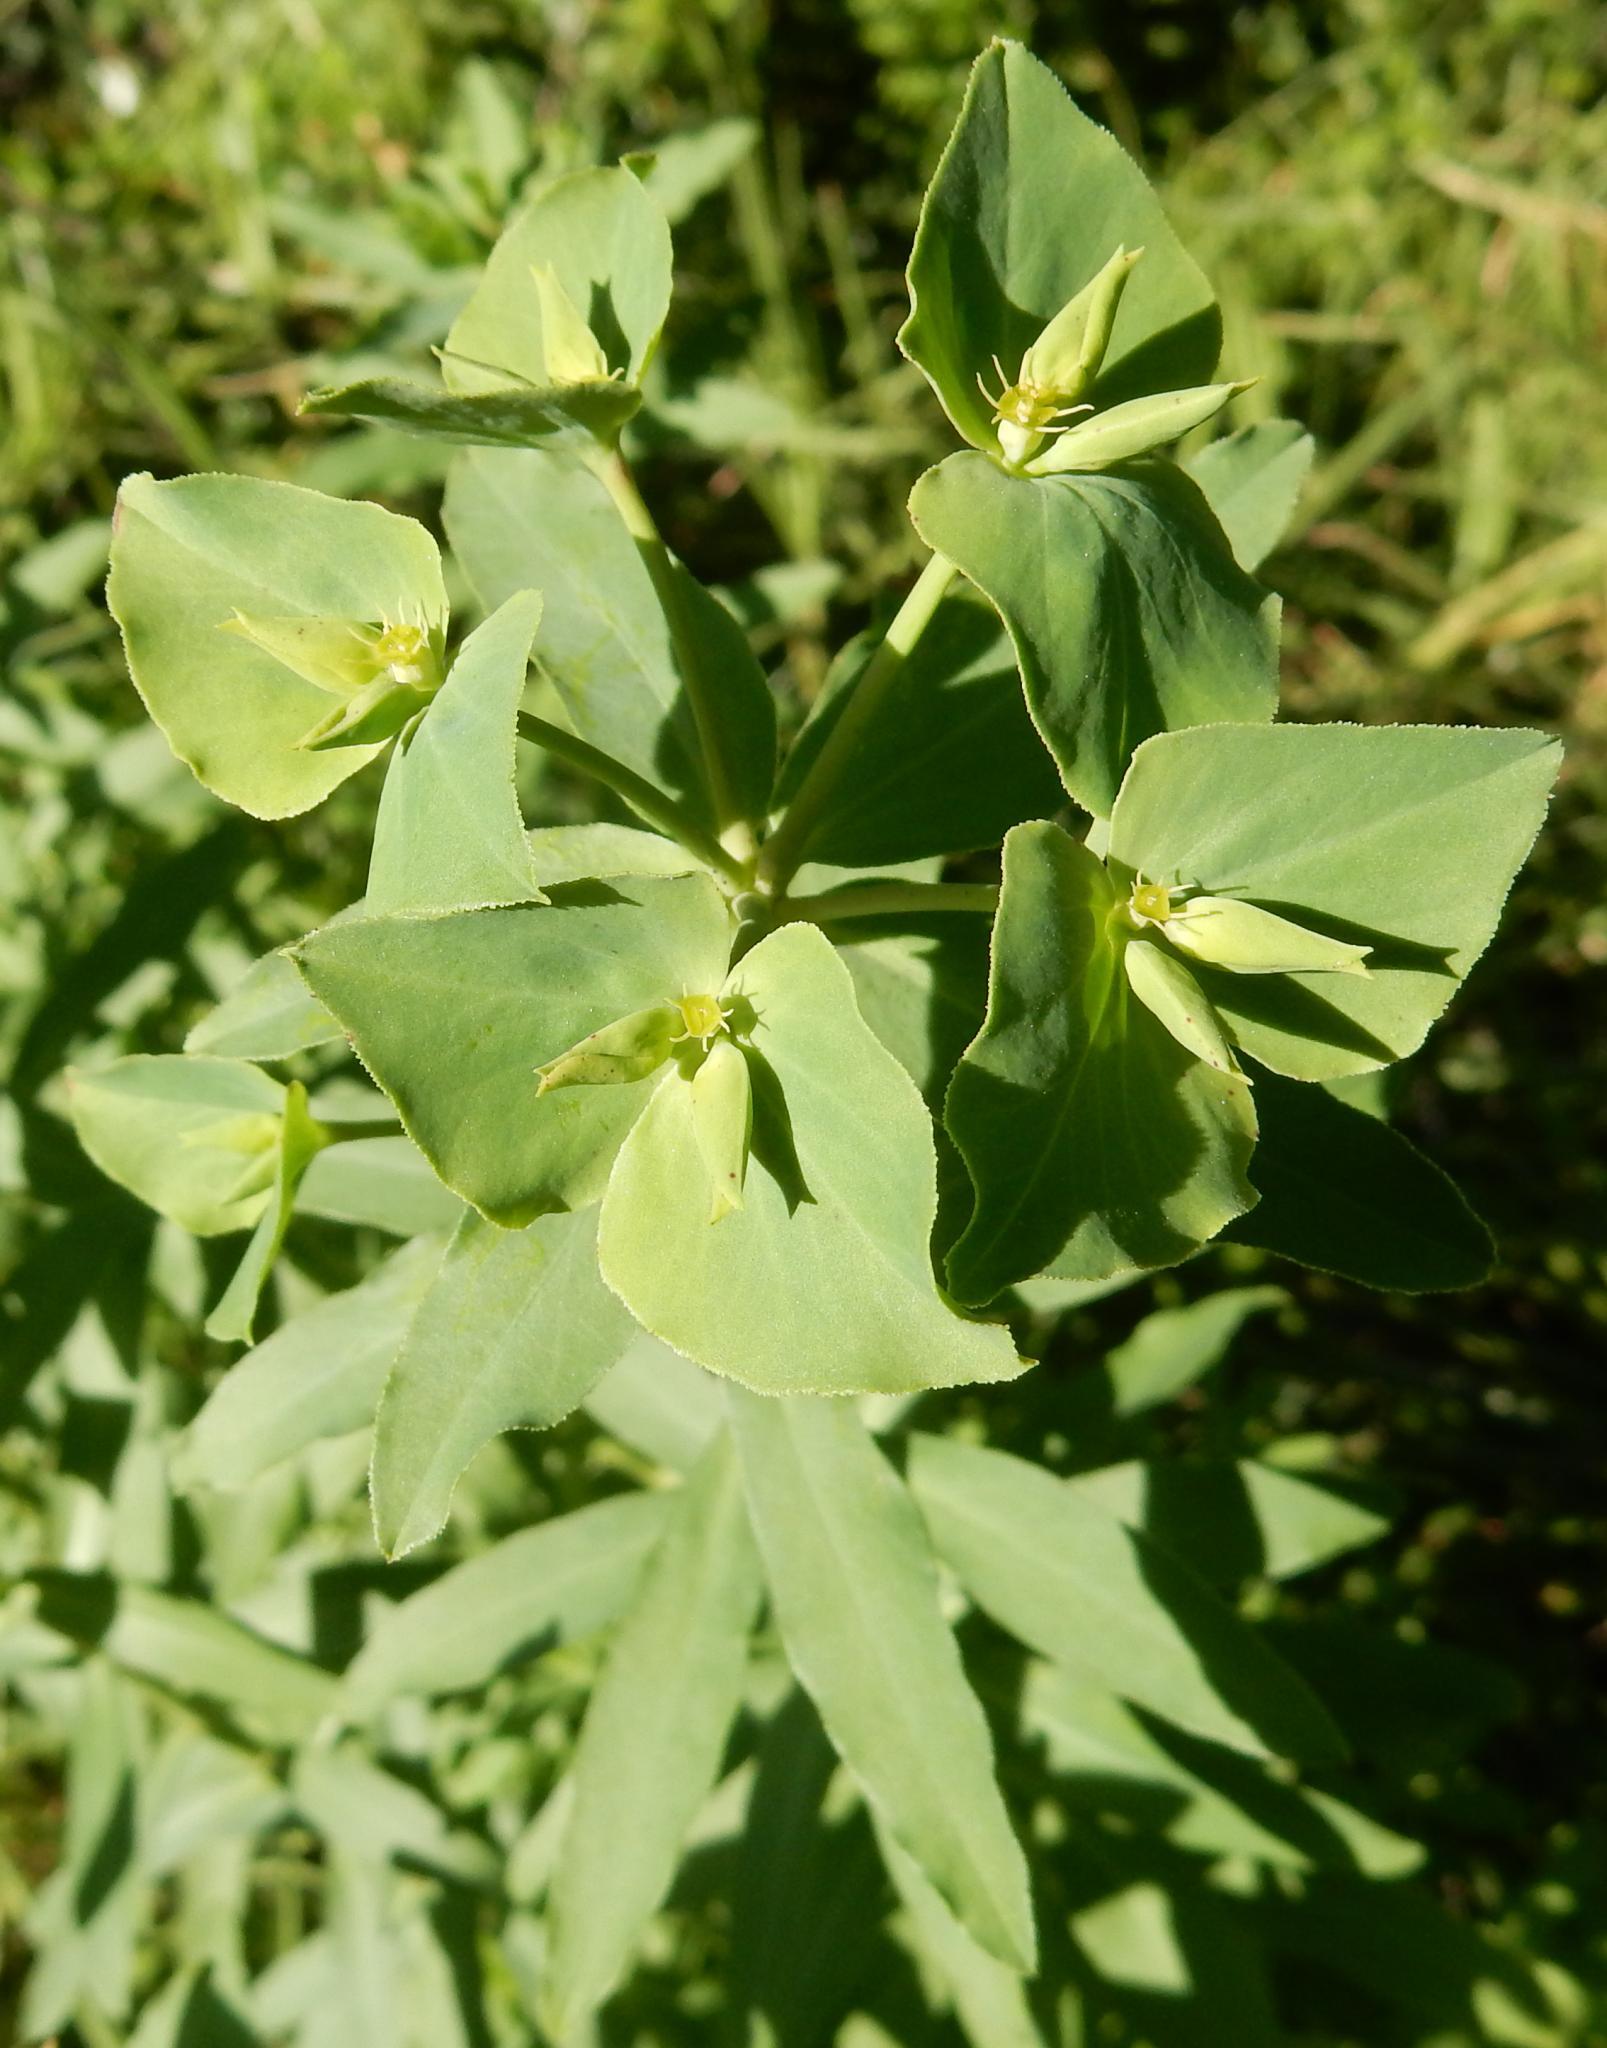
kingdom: Plantae
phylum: Tracheophyta
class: Magnoliopsida
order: Malpighiales
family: Euphorbiaceae
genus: Euphorbia
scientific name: Euphorbia terracina
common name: Geraldton carnation weed
